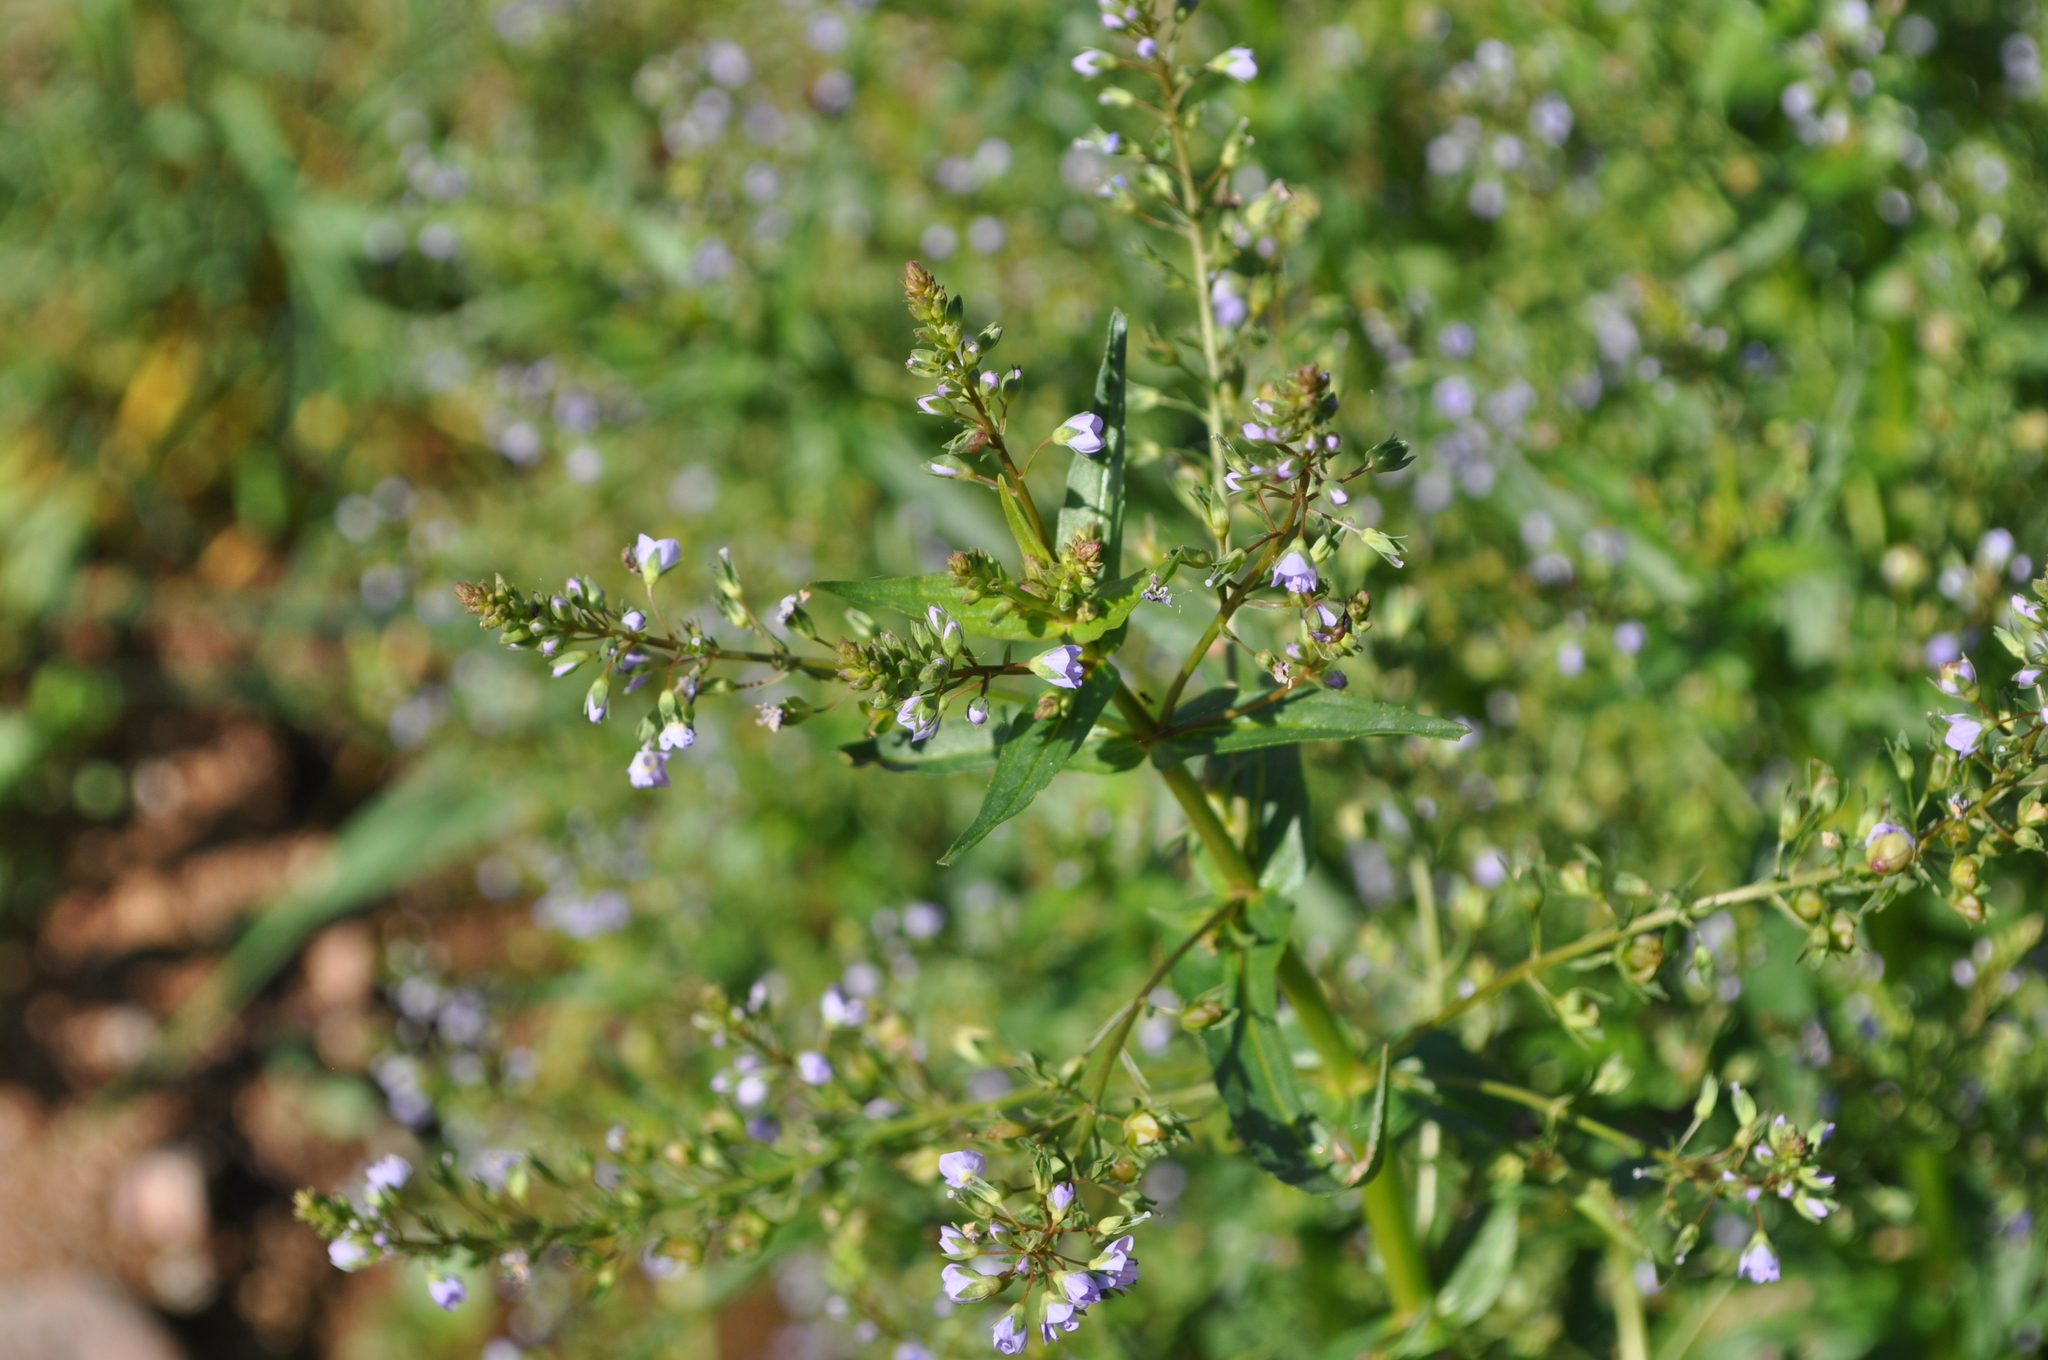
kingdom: Plantae
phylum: Tracheophyta
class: Magnoliopsida
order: Lamiales
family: Plantaginaceae
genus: Veronica
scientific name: Veronica anagallis-aquatica
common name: Water speedwell
